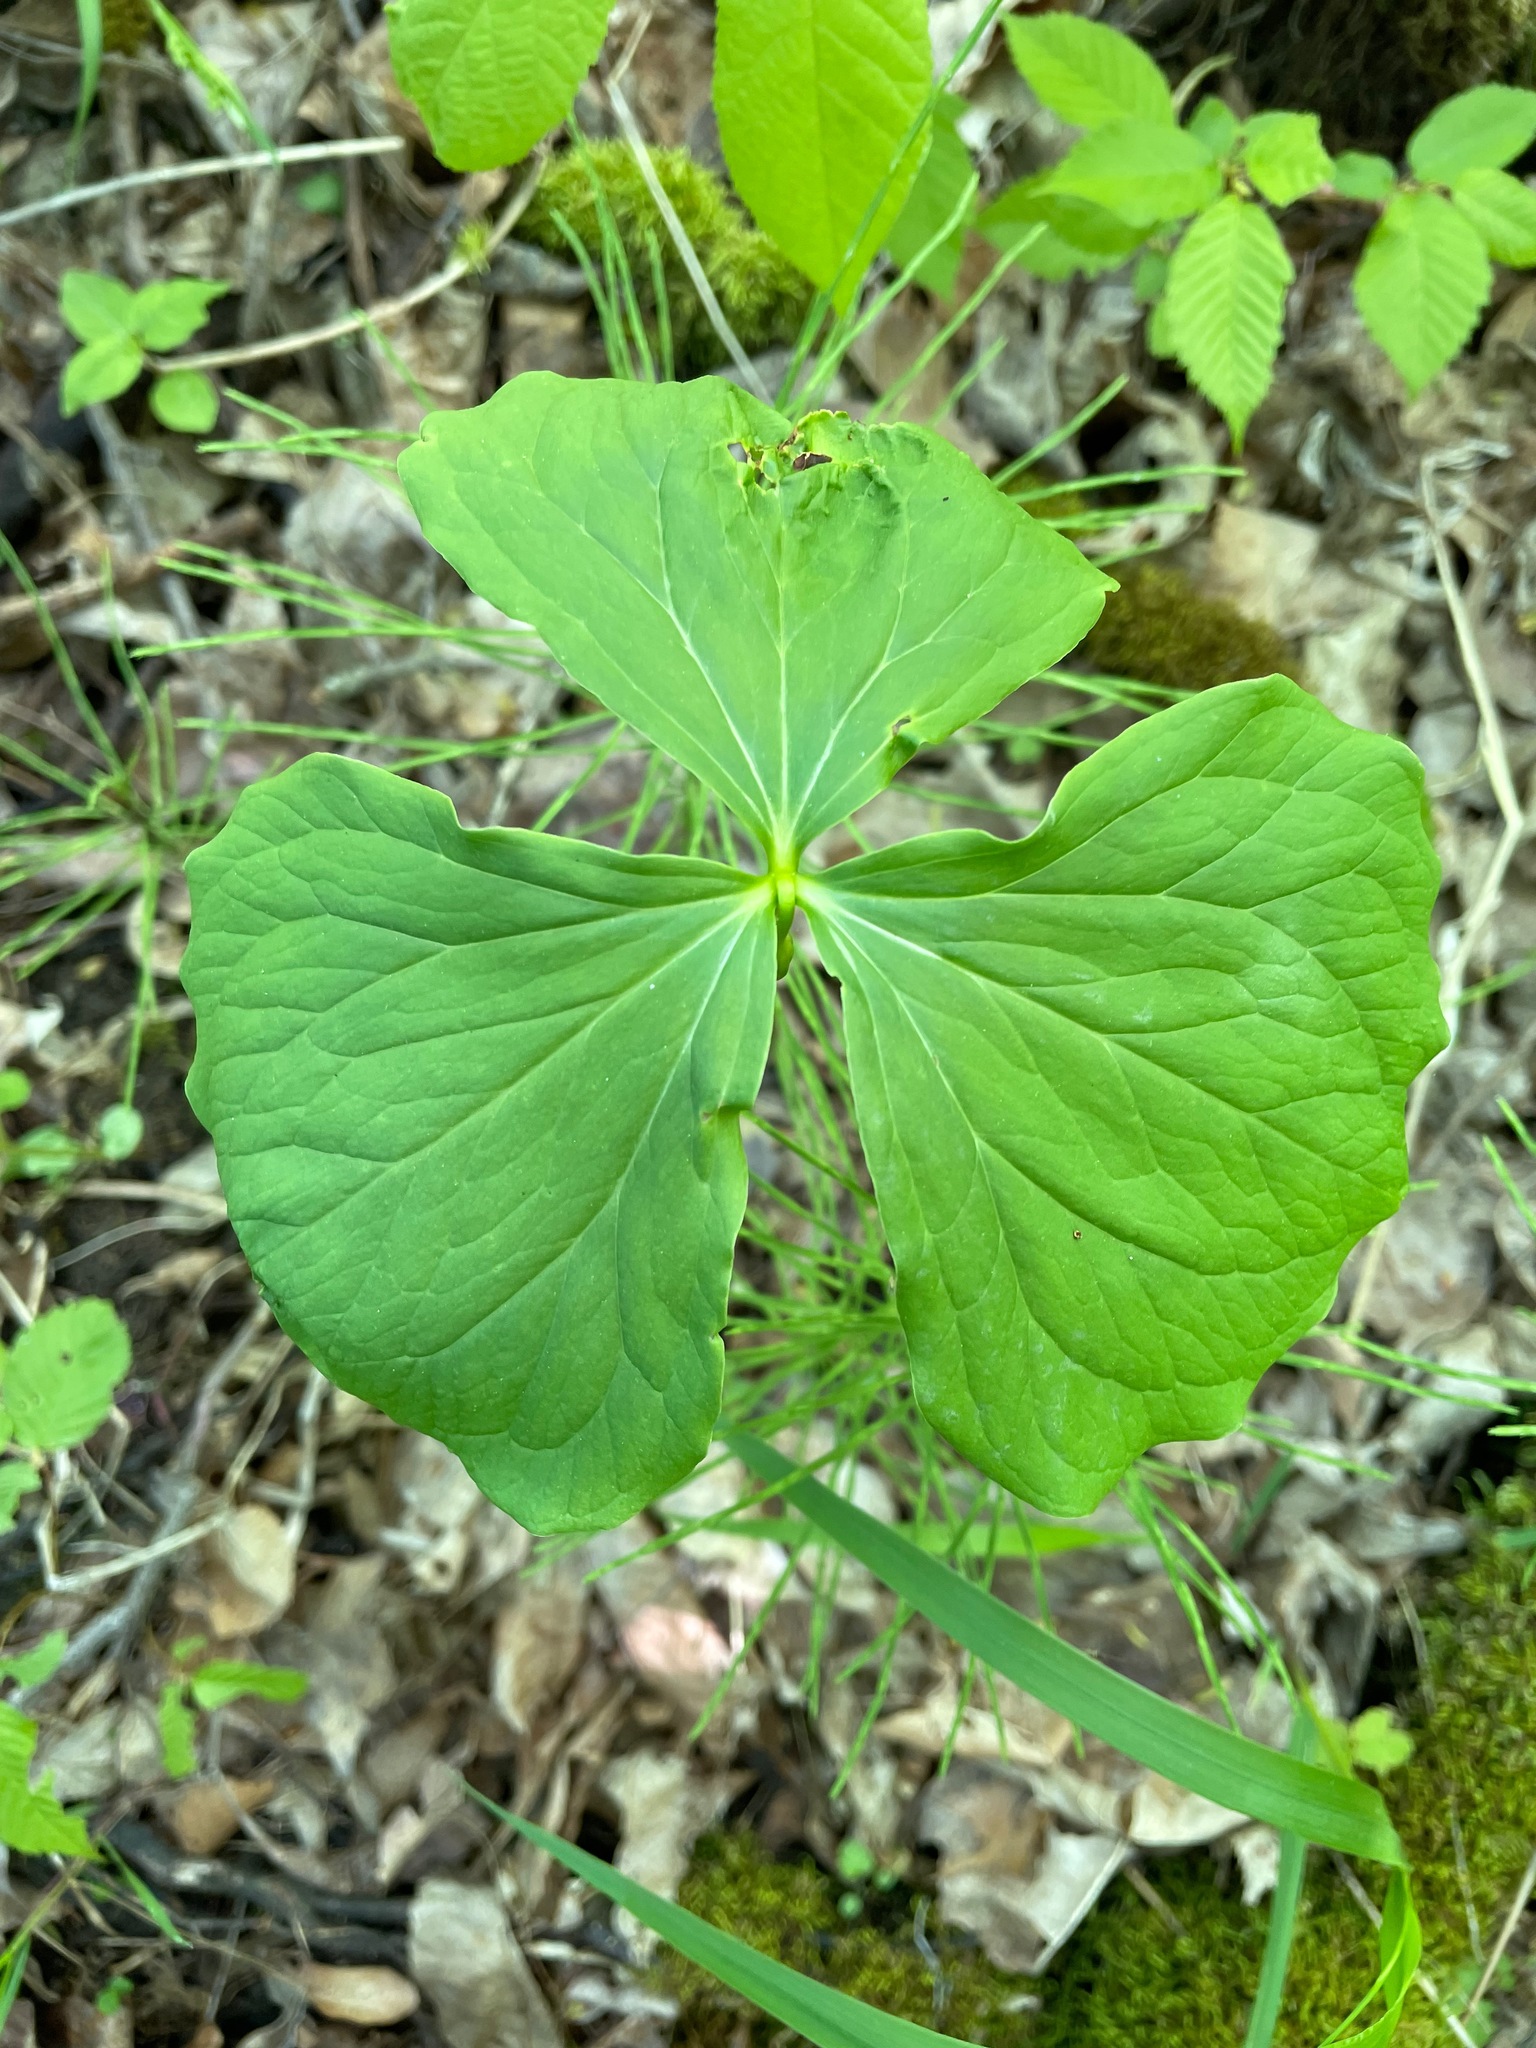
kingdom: Plantae
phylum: Tracheophyta
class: Liliopsida
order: Liliales
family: Melanthiaceae
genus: Trillium
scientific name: Trillium cernuum
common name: Nodding trillium
